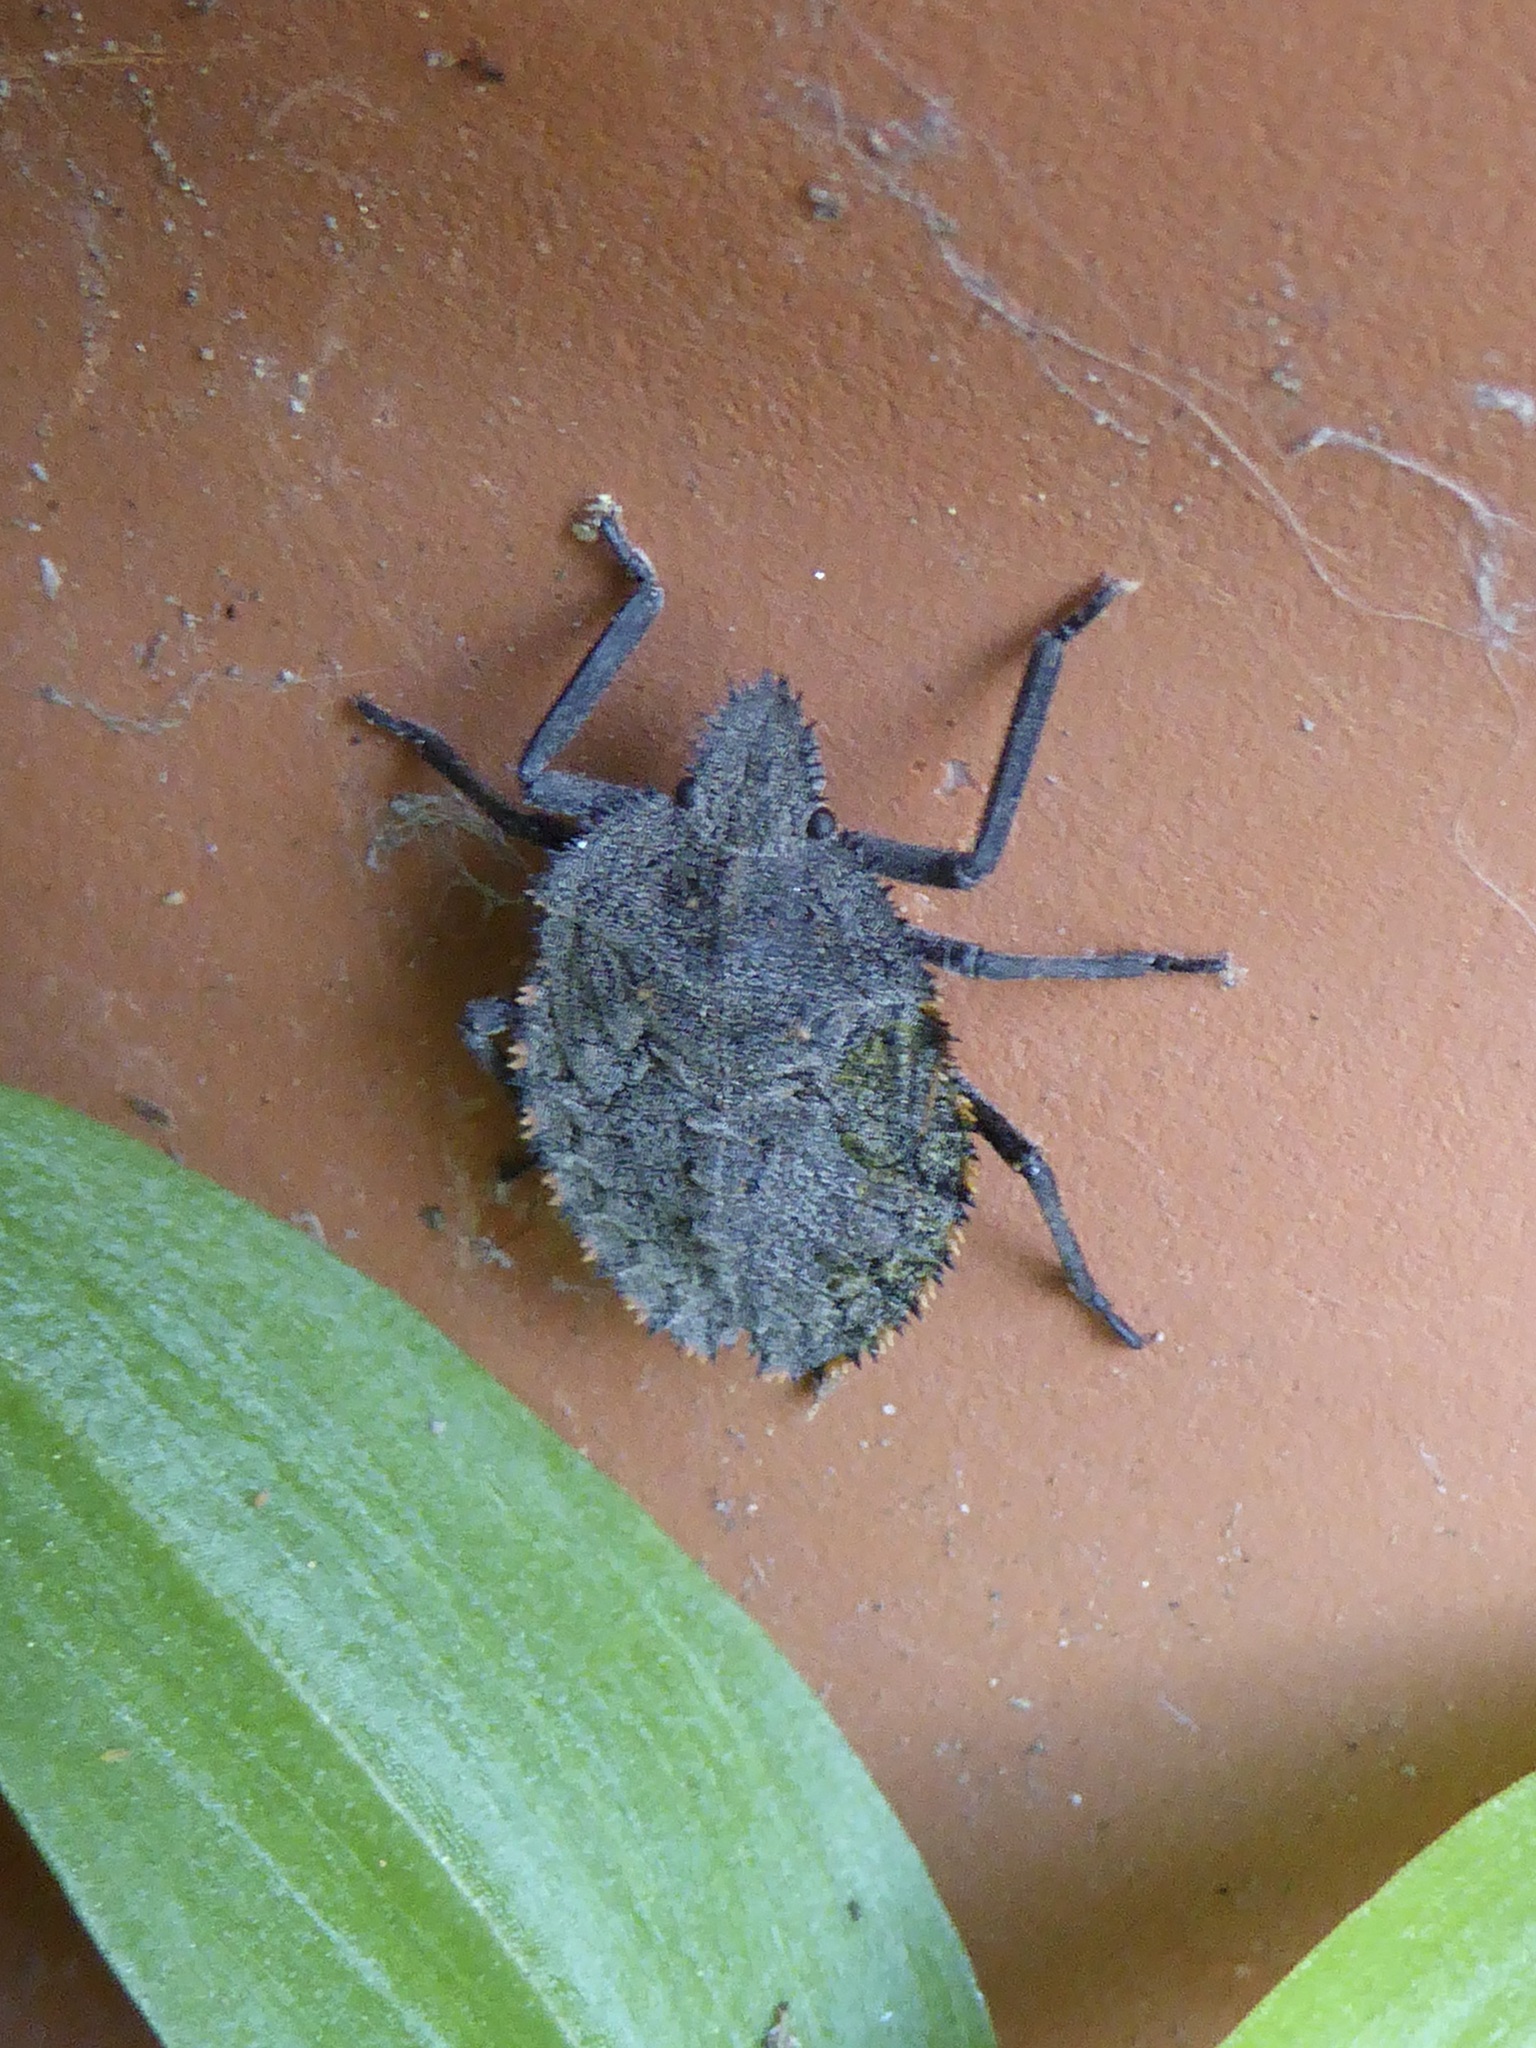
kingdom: Animalia
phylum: Arthropoda
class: Insecta
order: Hemiptera
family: Pentatomidae
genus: Mustha
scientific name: Mustha spinosula
